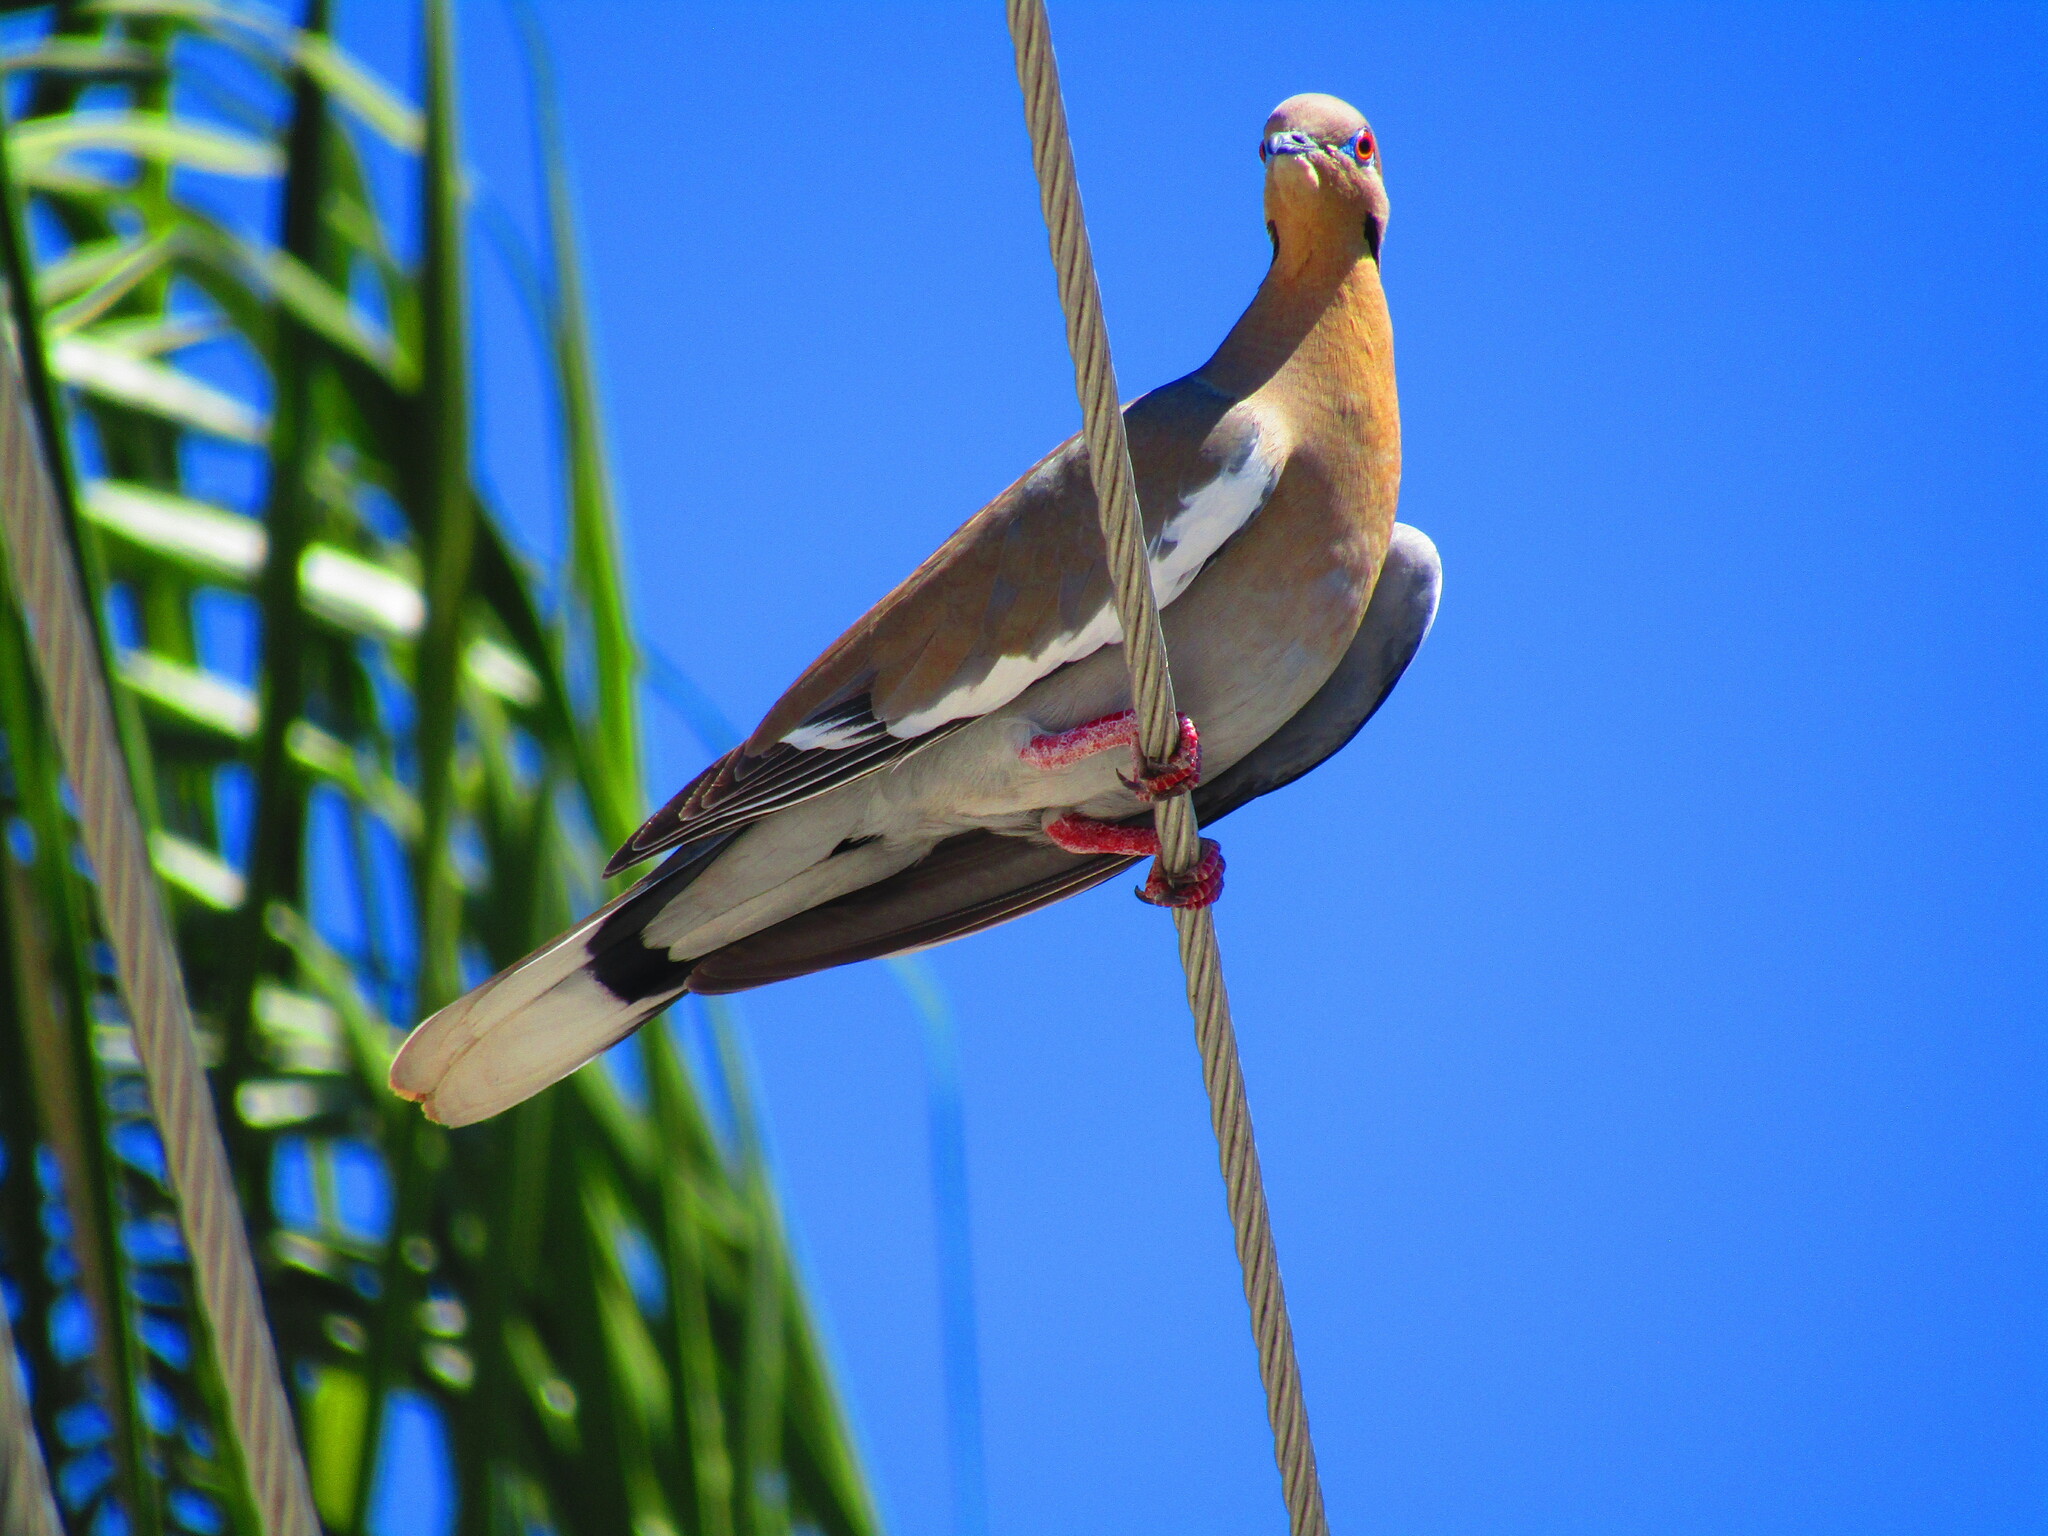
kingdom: Animalia
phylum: Chordata
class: Aves
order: Columbiformes
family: Columbidae
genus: Zenaida
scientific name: Zenaida asiatica
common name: White-winged dove
